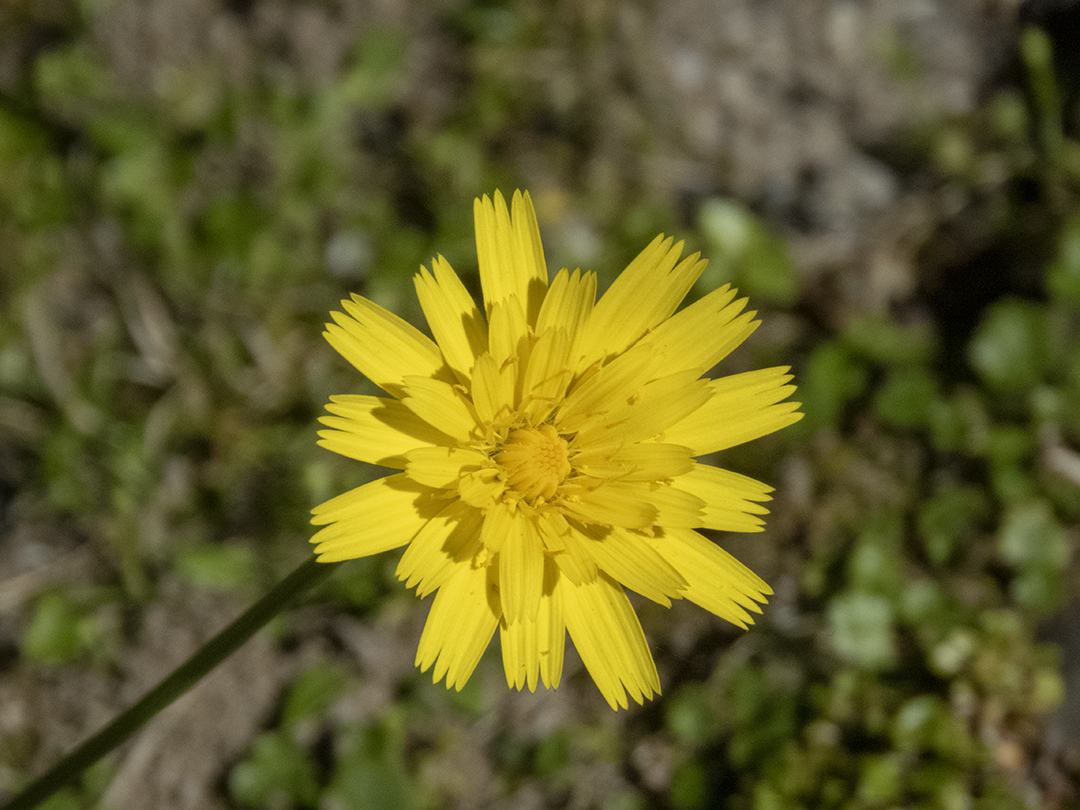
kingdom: Plantae
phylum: Tracheophyta
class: Magnoliopsida
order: Asterales
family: Asteraceae
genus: Thrincia
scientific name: Thrincia saxatilis
